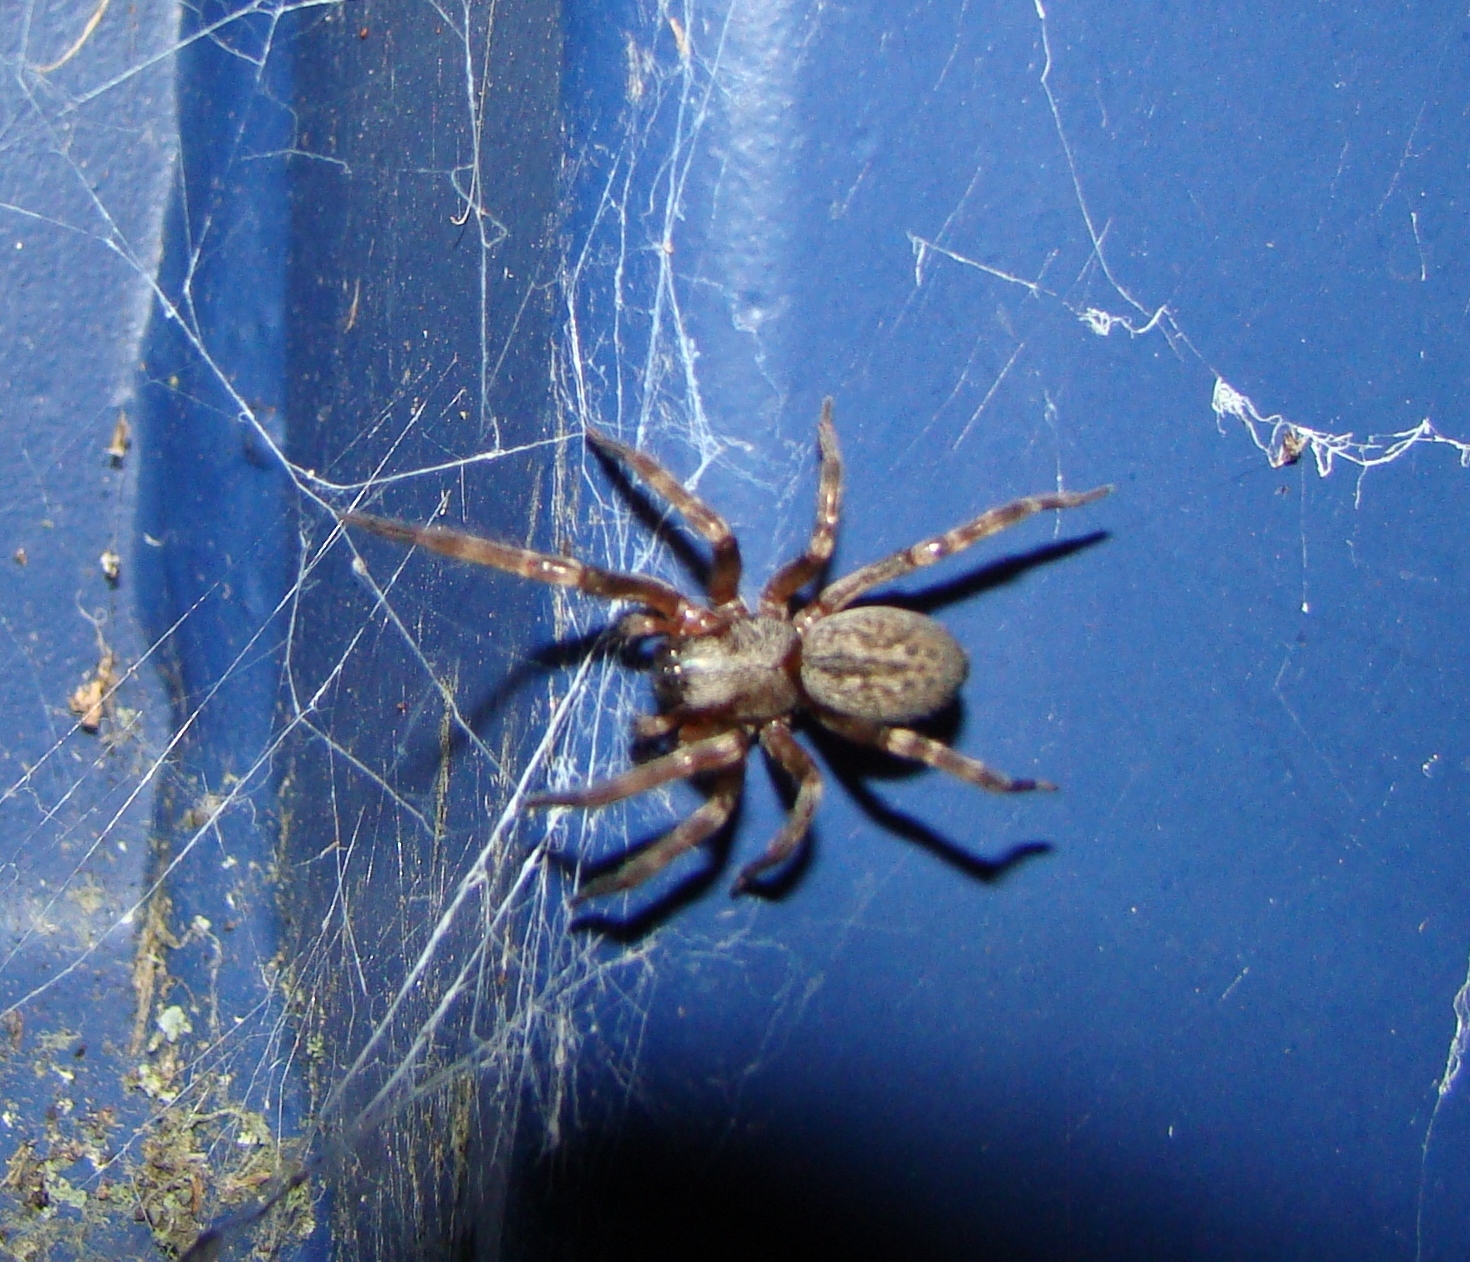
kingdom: Animalia
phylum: Arthropoda
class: Arachnida
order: Araneae
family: Desidae
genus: Badumna
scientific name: Badumna longinqua
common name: Gray house spider
